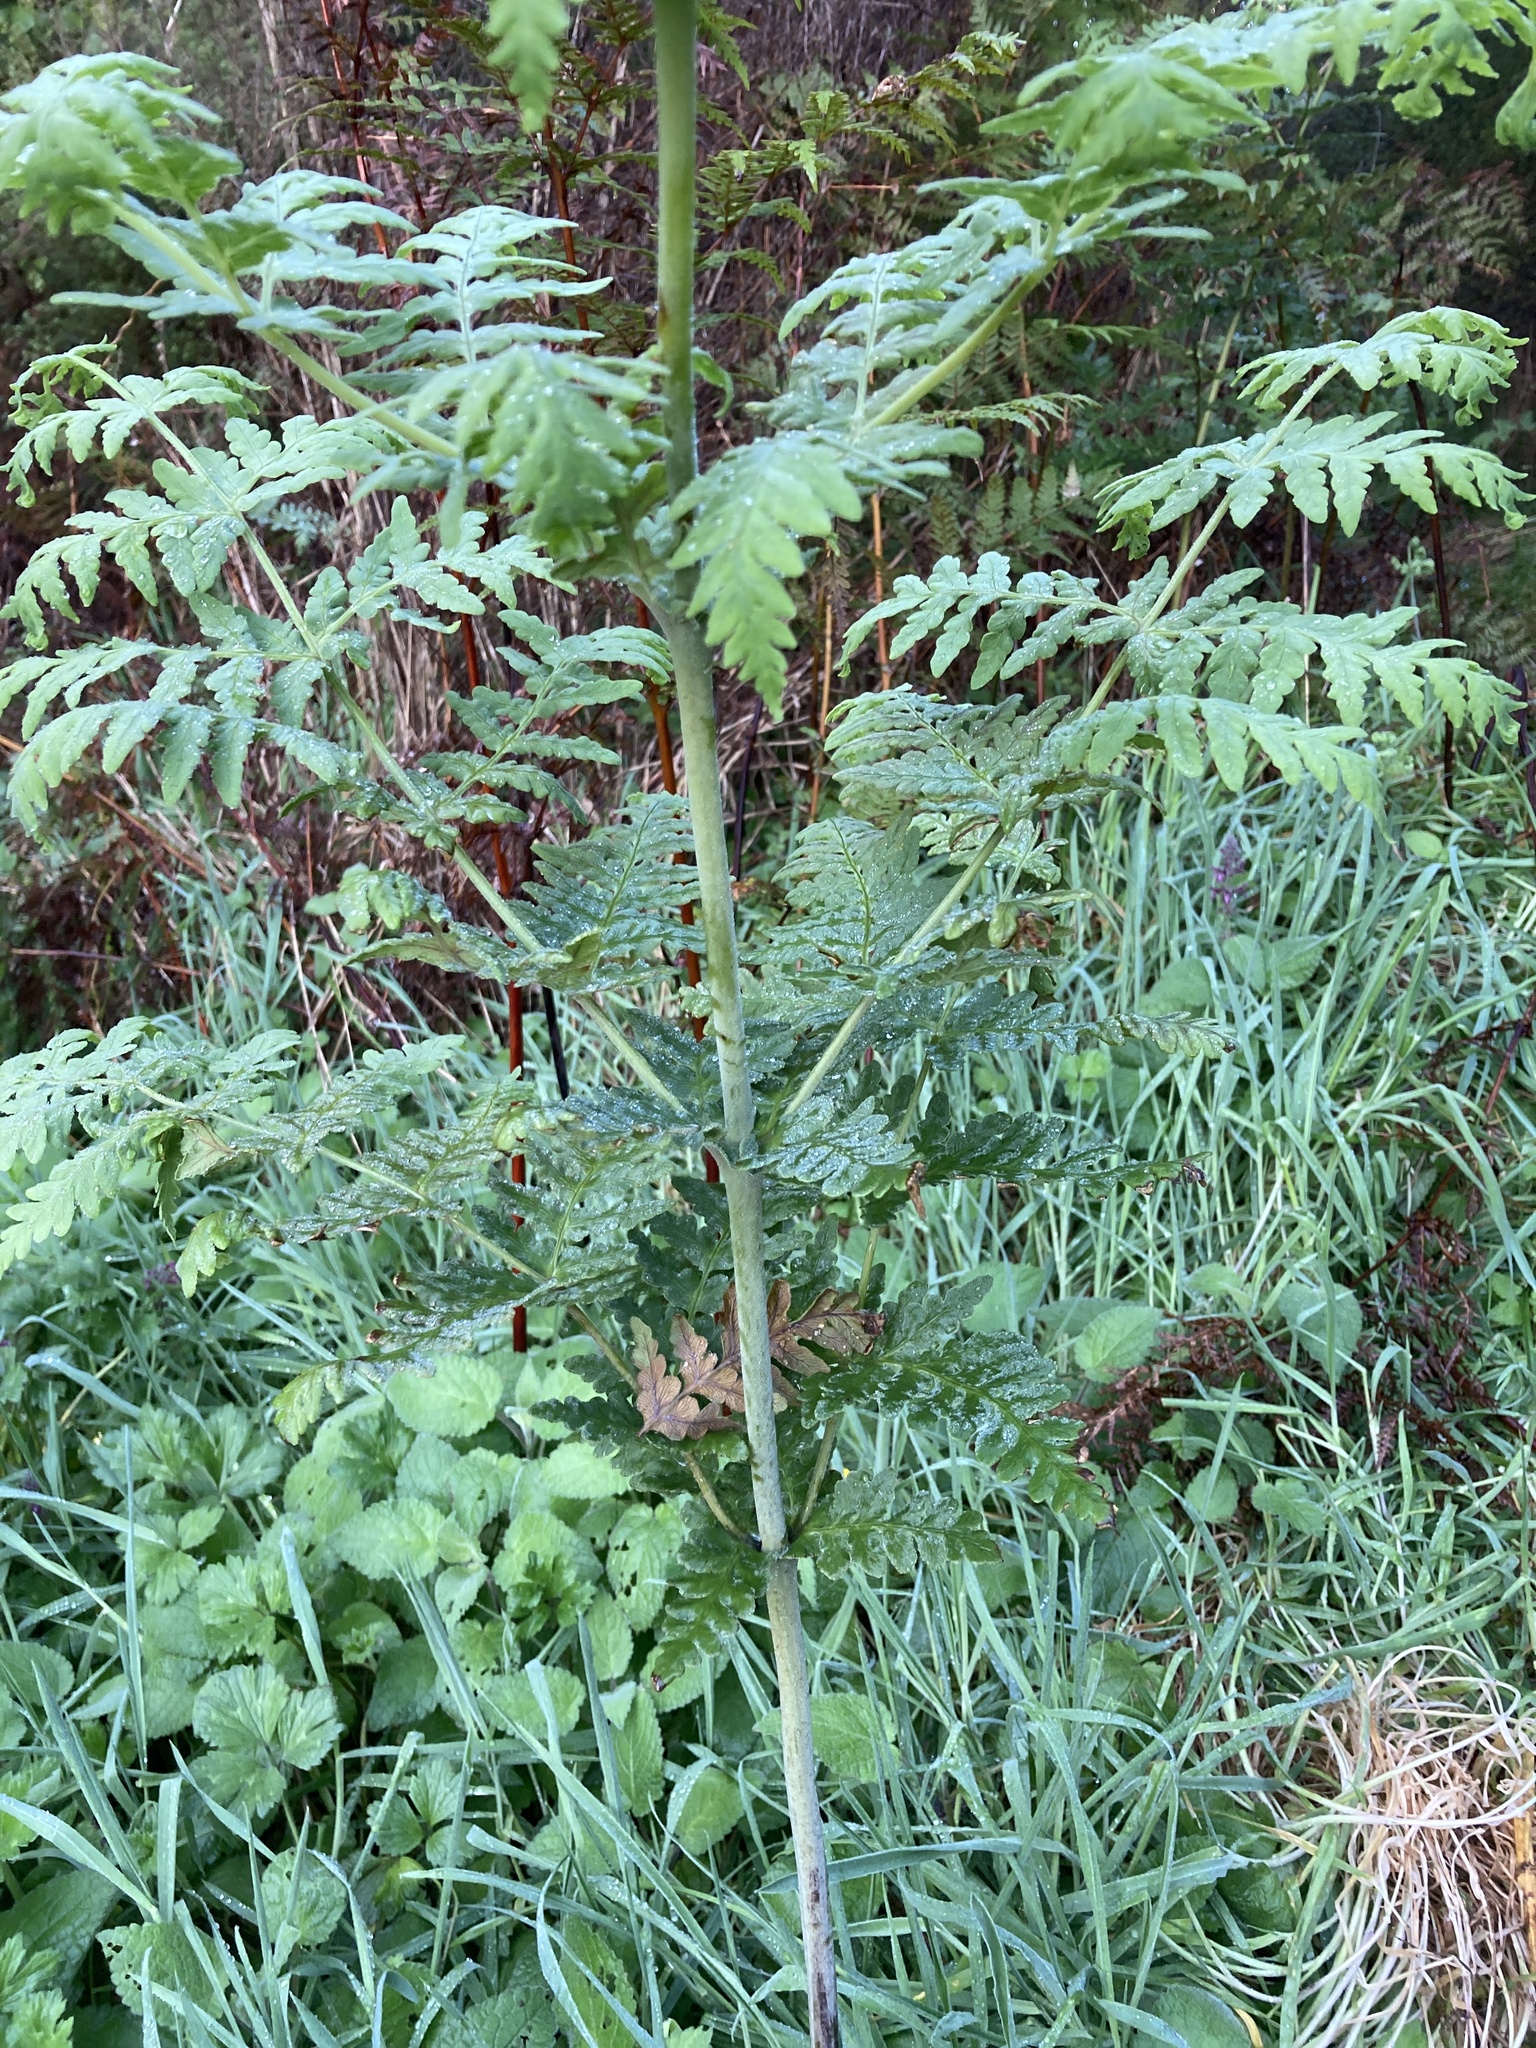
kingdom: Plantae
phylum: Tracheophyta
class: Polypodiopsida
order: Polypodiales
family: Dennstaedtiaceae
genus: Histiopteris
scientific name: Histiopteris incisa
